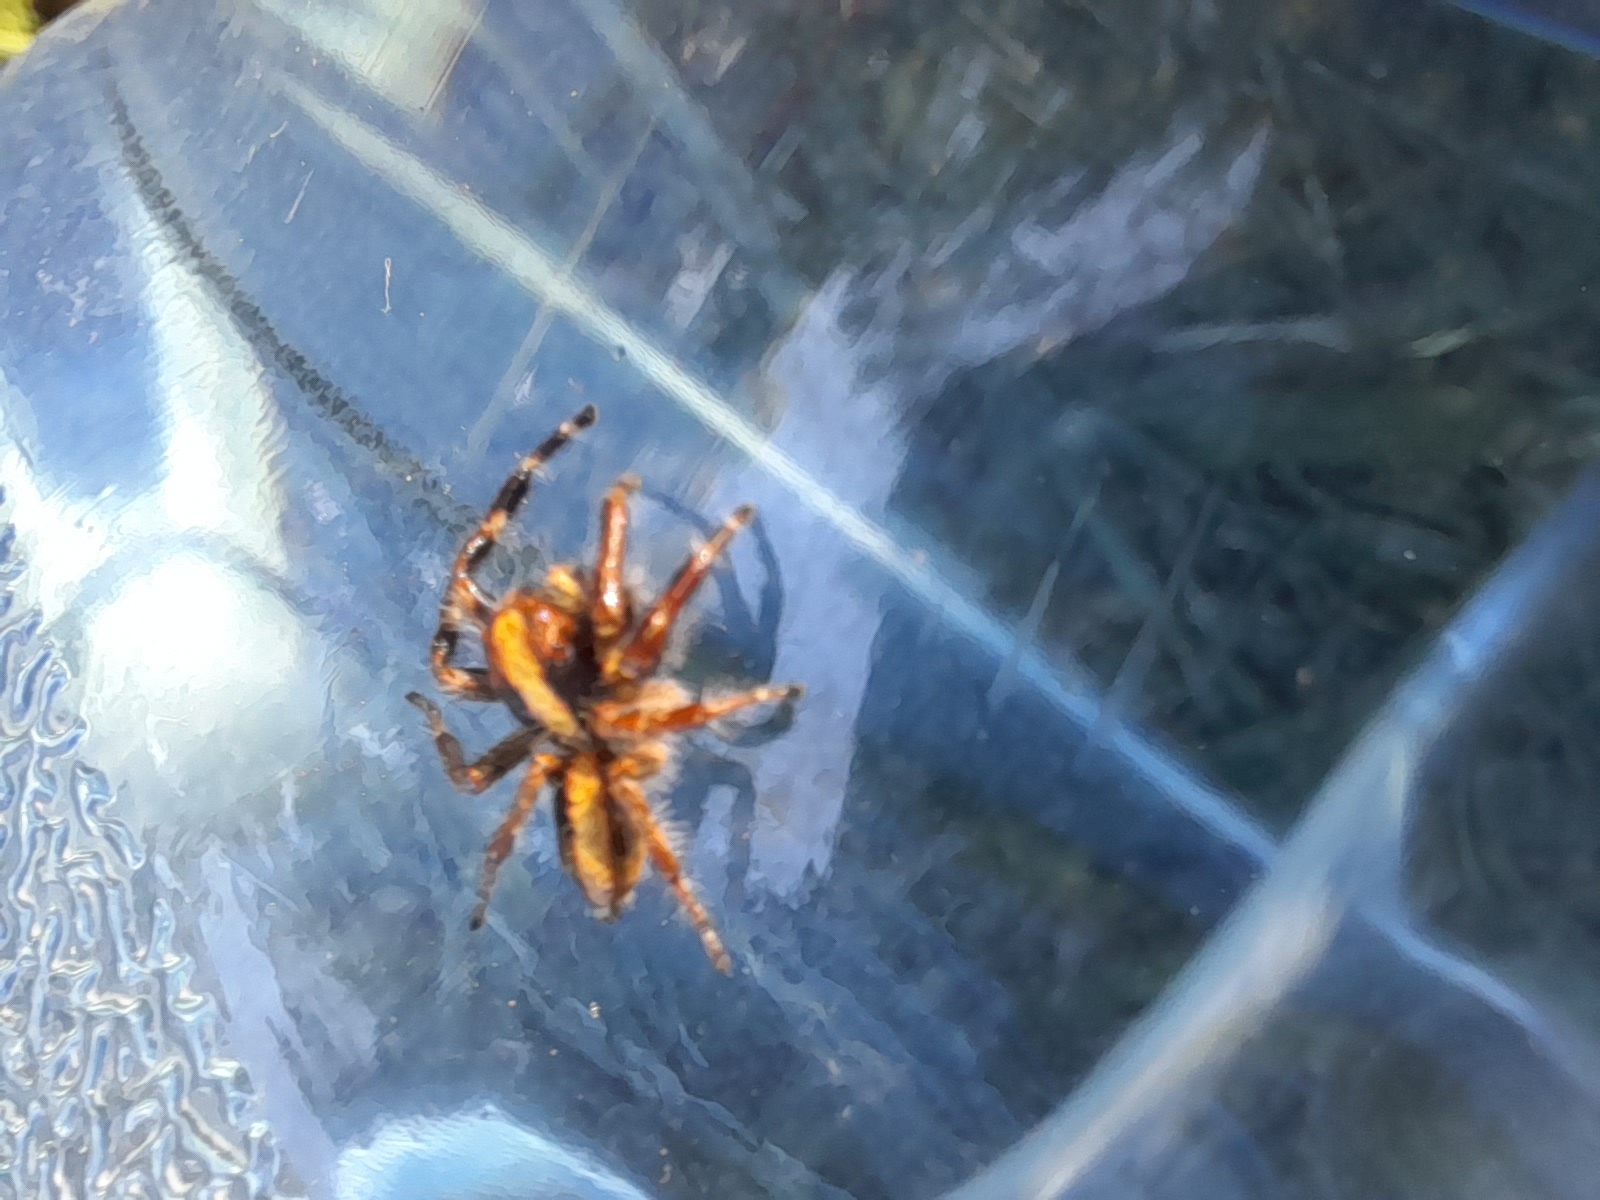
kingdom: Animalia
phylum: Arthropoda
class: Arachnida
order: Araneae
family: Salticidae
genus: Megafreya
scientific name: Megafreya sutrix
